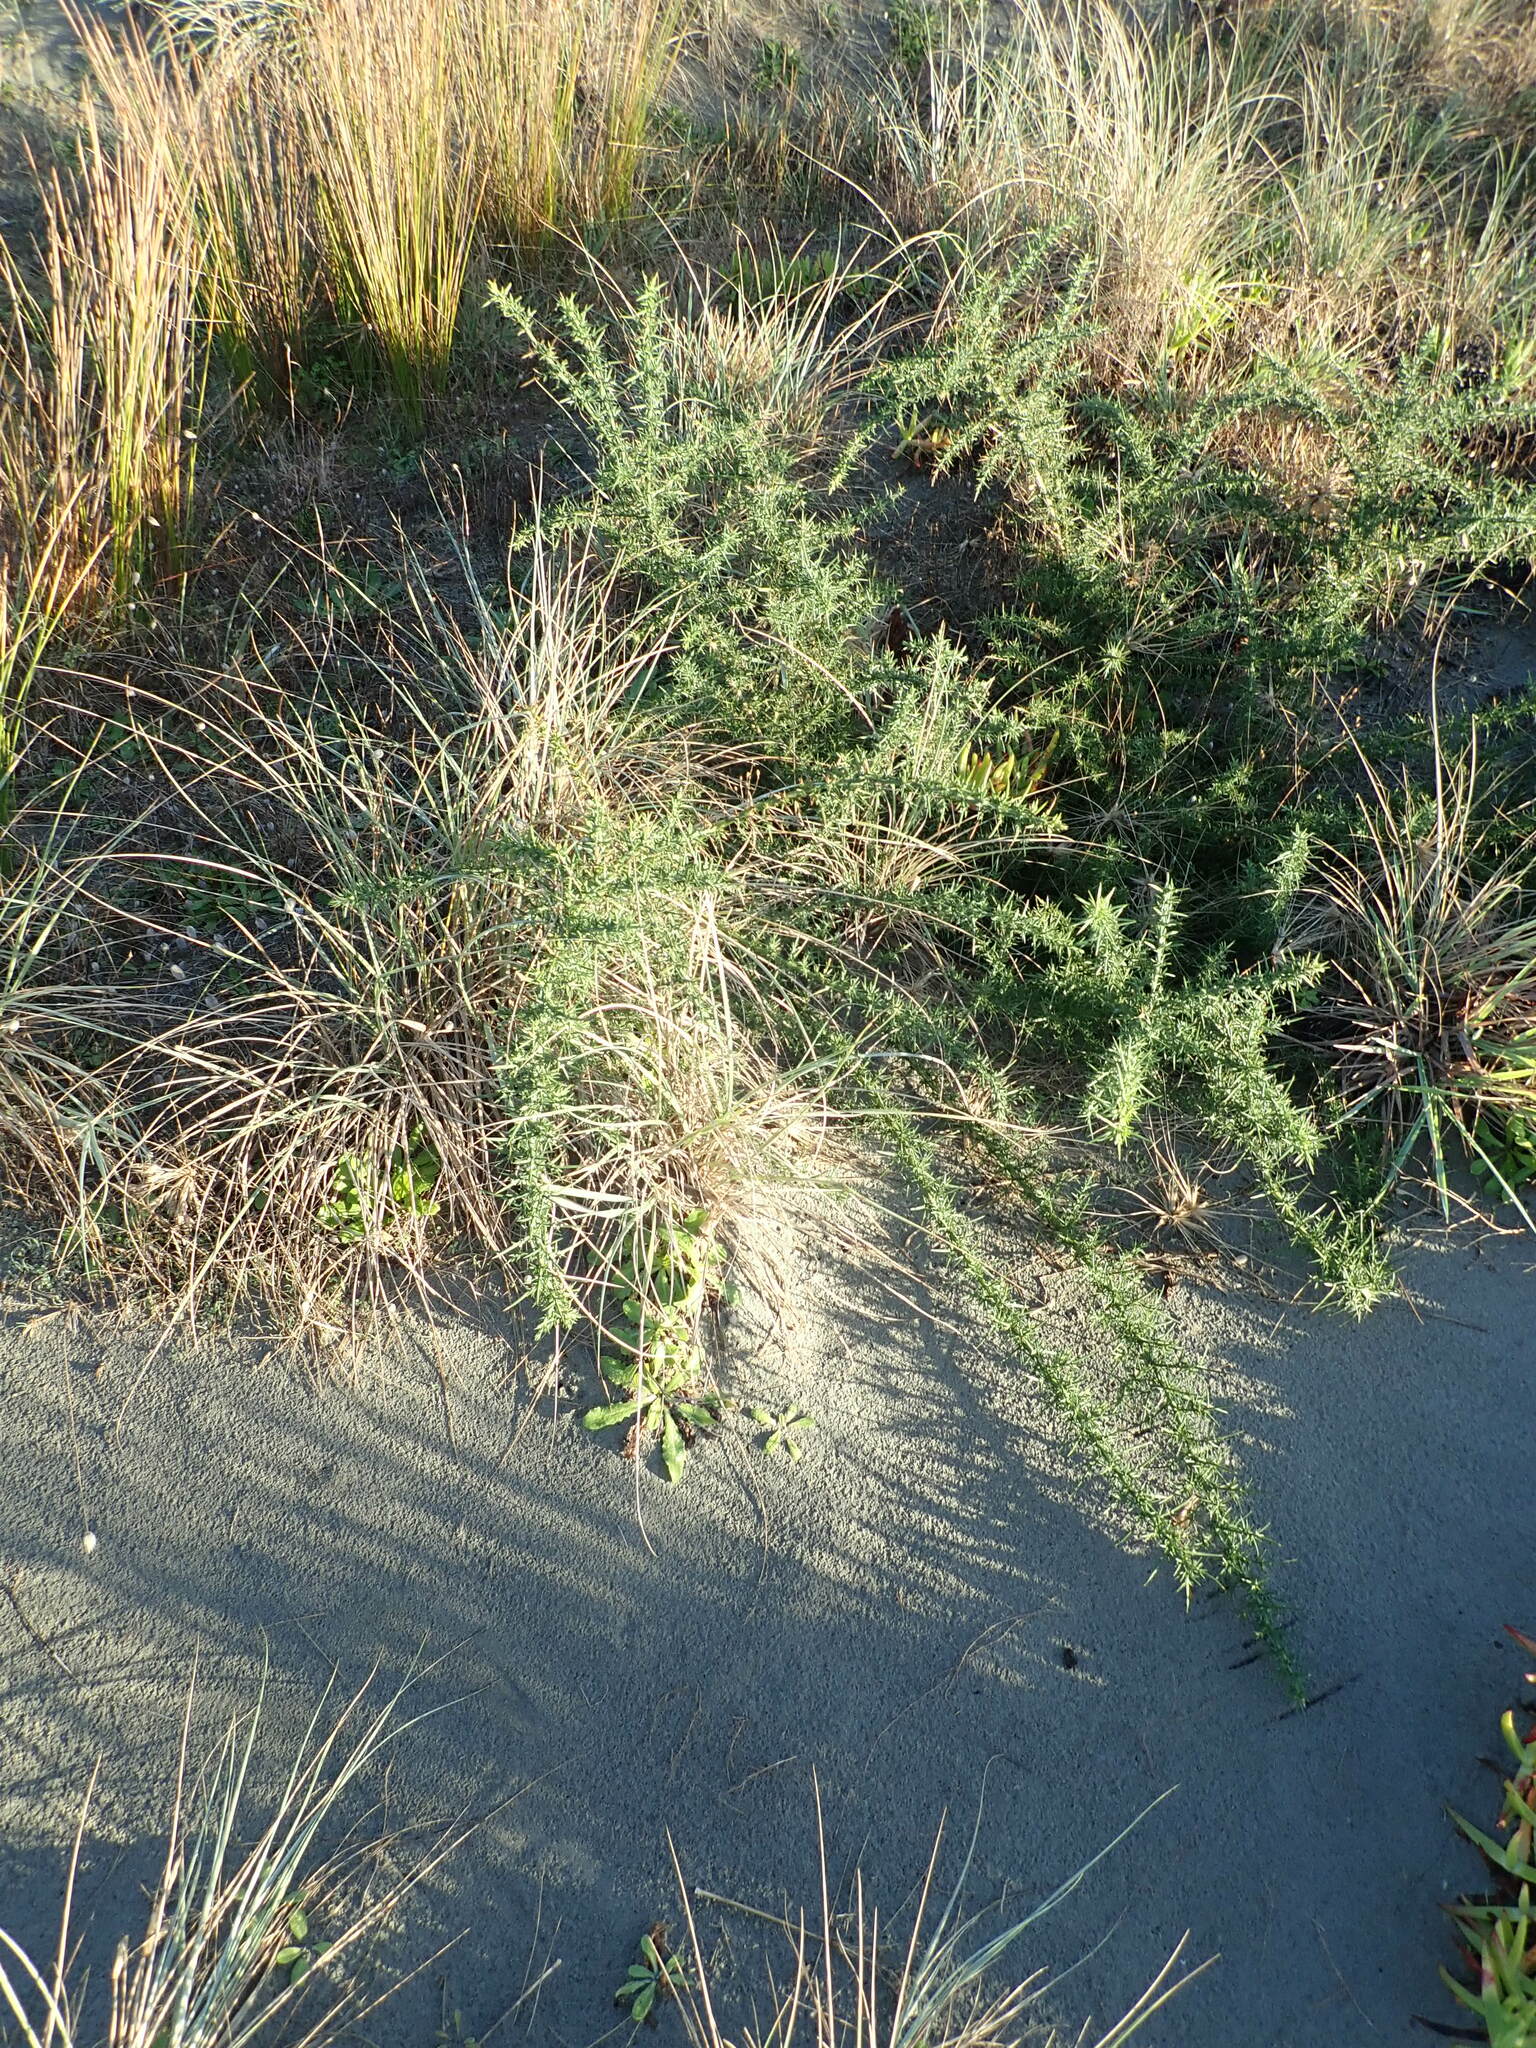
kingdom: Plantae
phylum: Tracheophyta
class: Magnoliopsida
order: Fabales
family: Fabaceae
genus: Ulex
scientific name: Ulex europaeus
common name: Common gorse
